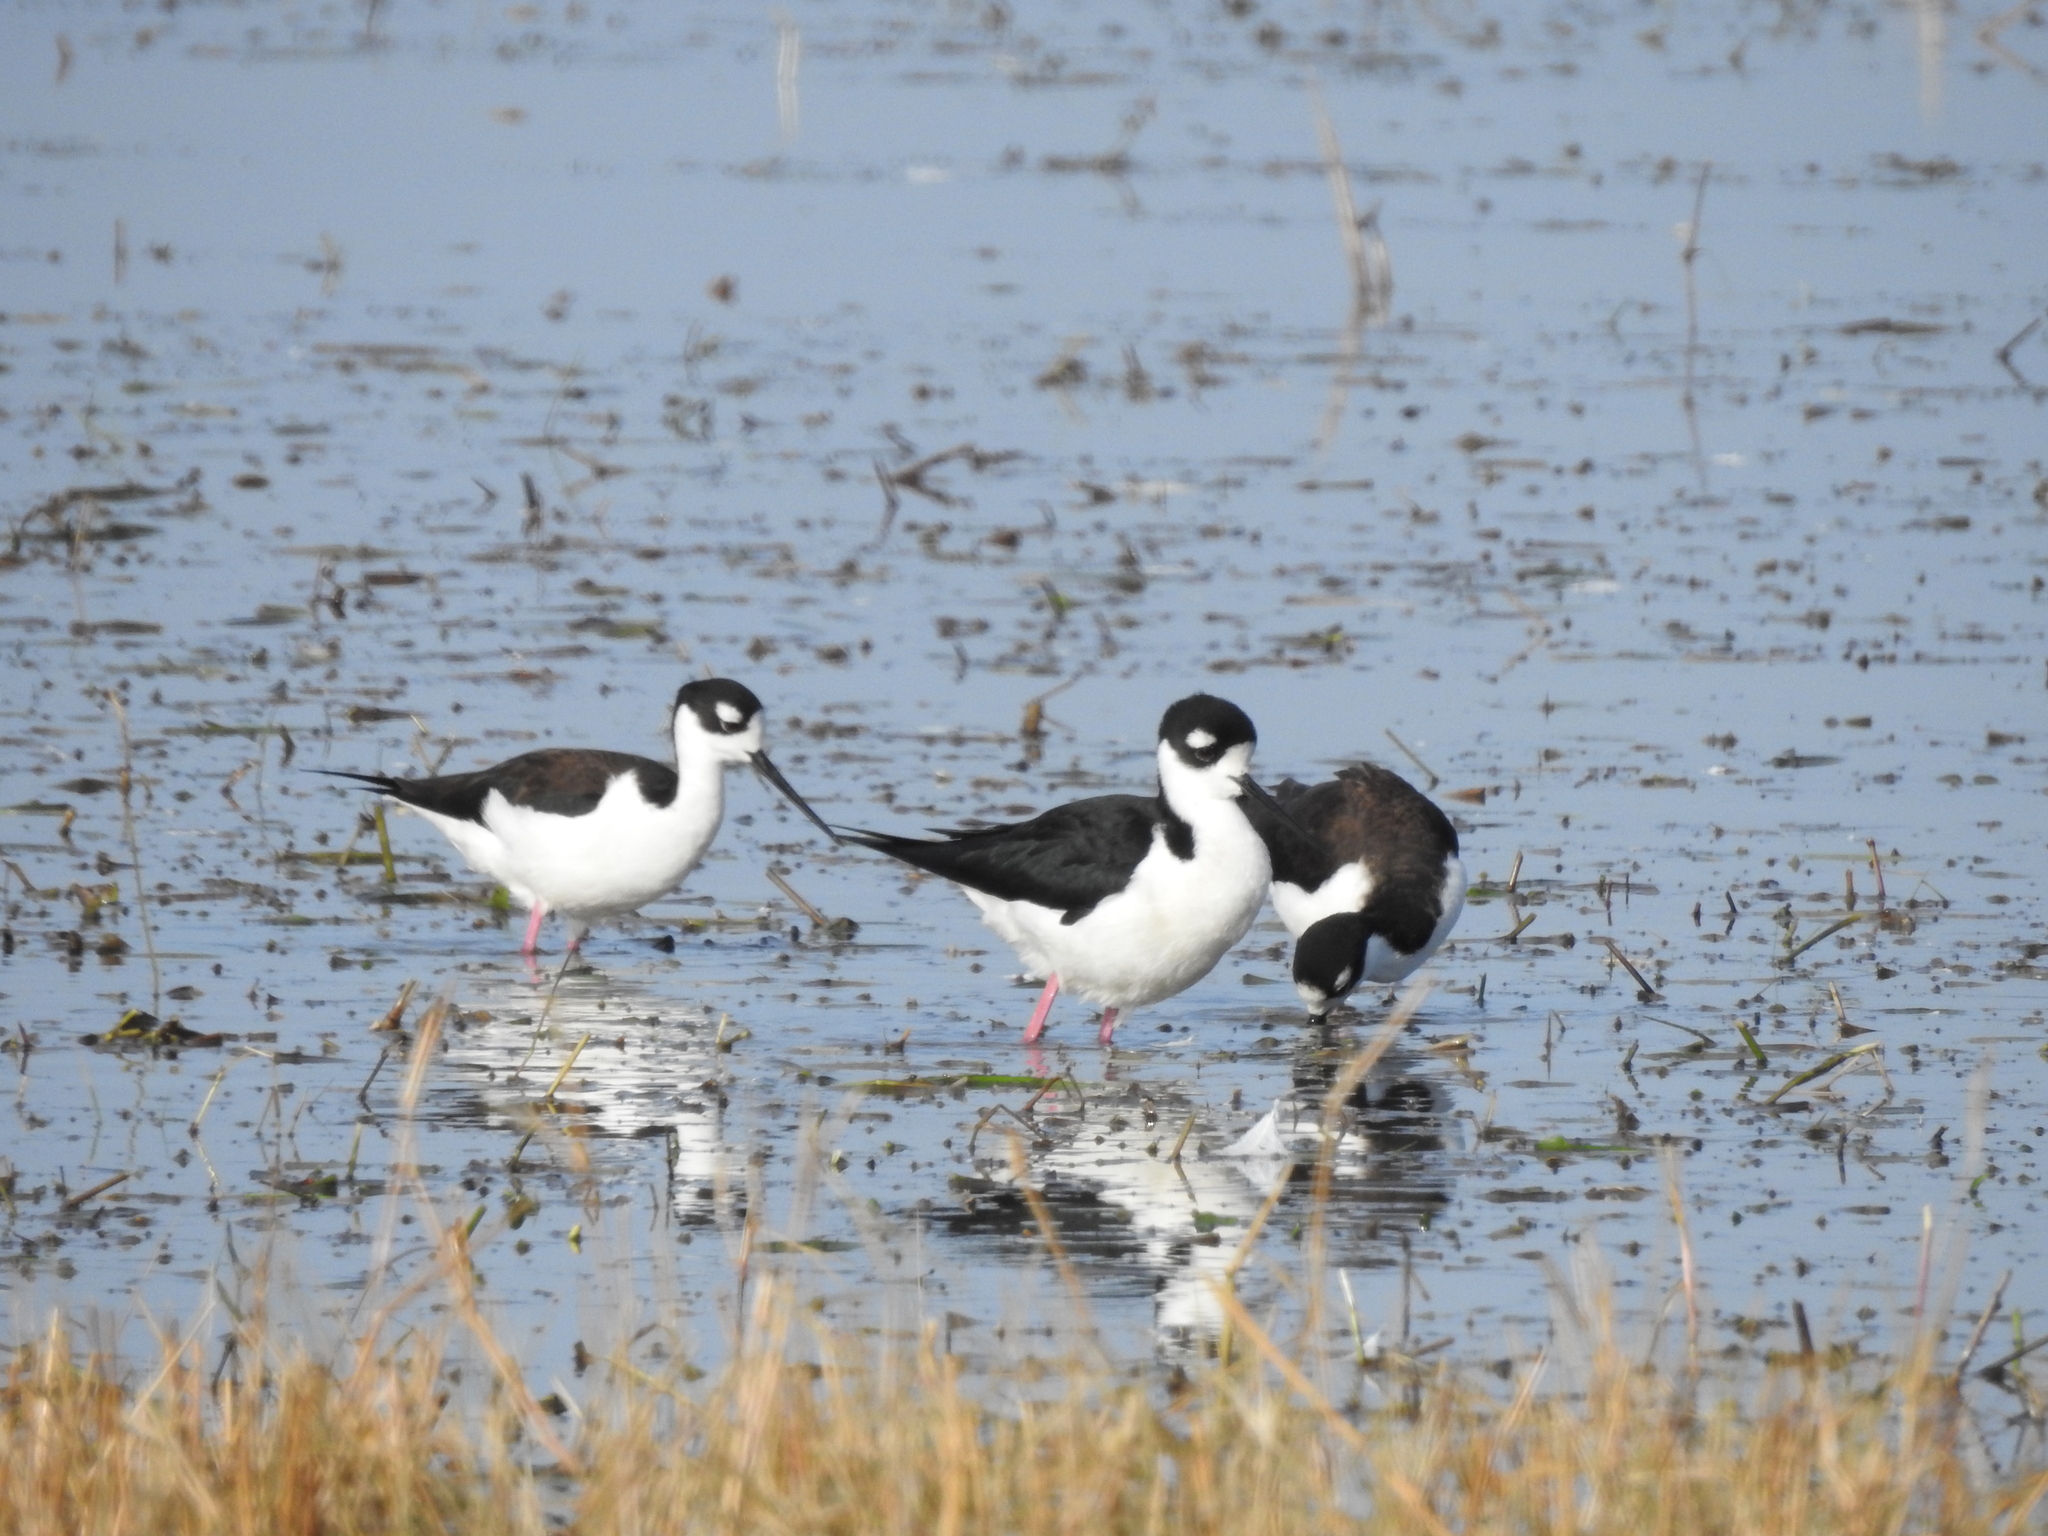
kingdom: Animalia
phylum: Chordata
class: Aves
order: Charadriiformes
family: Recurvirostridae
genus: Himantopus
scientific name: Himantopus mexicanus
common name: Black-necked stilt
